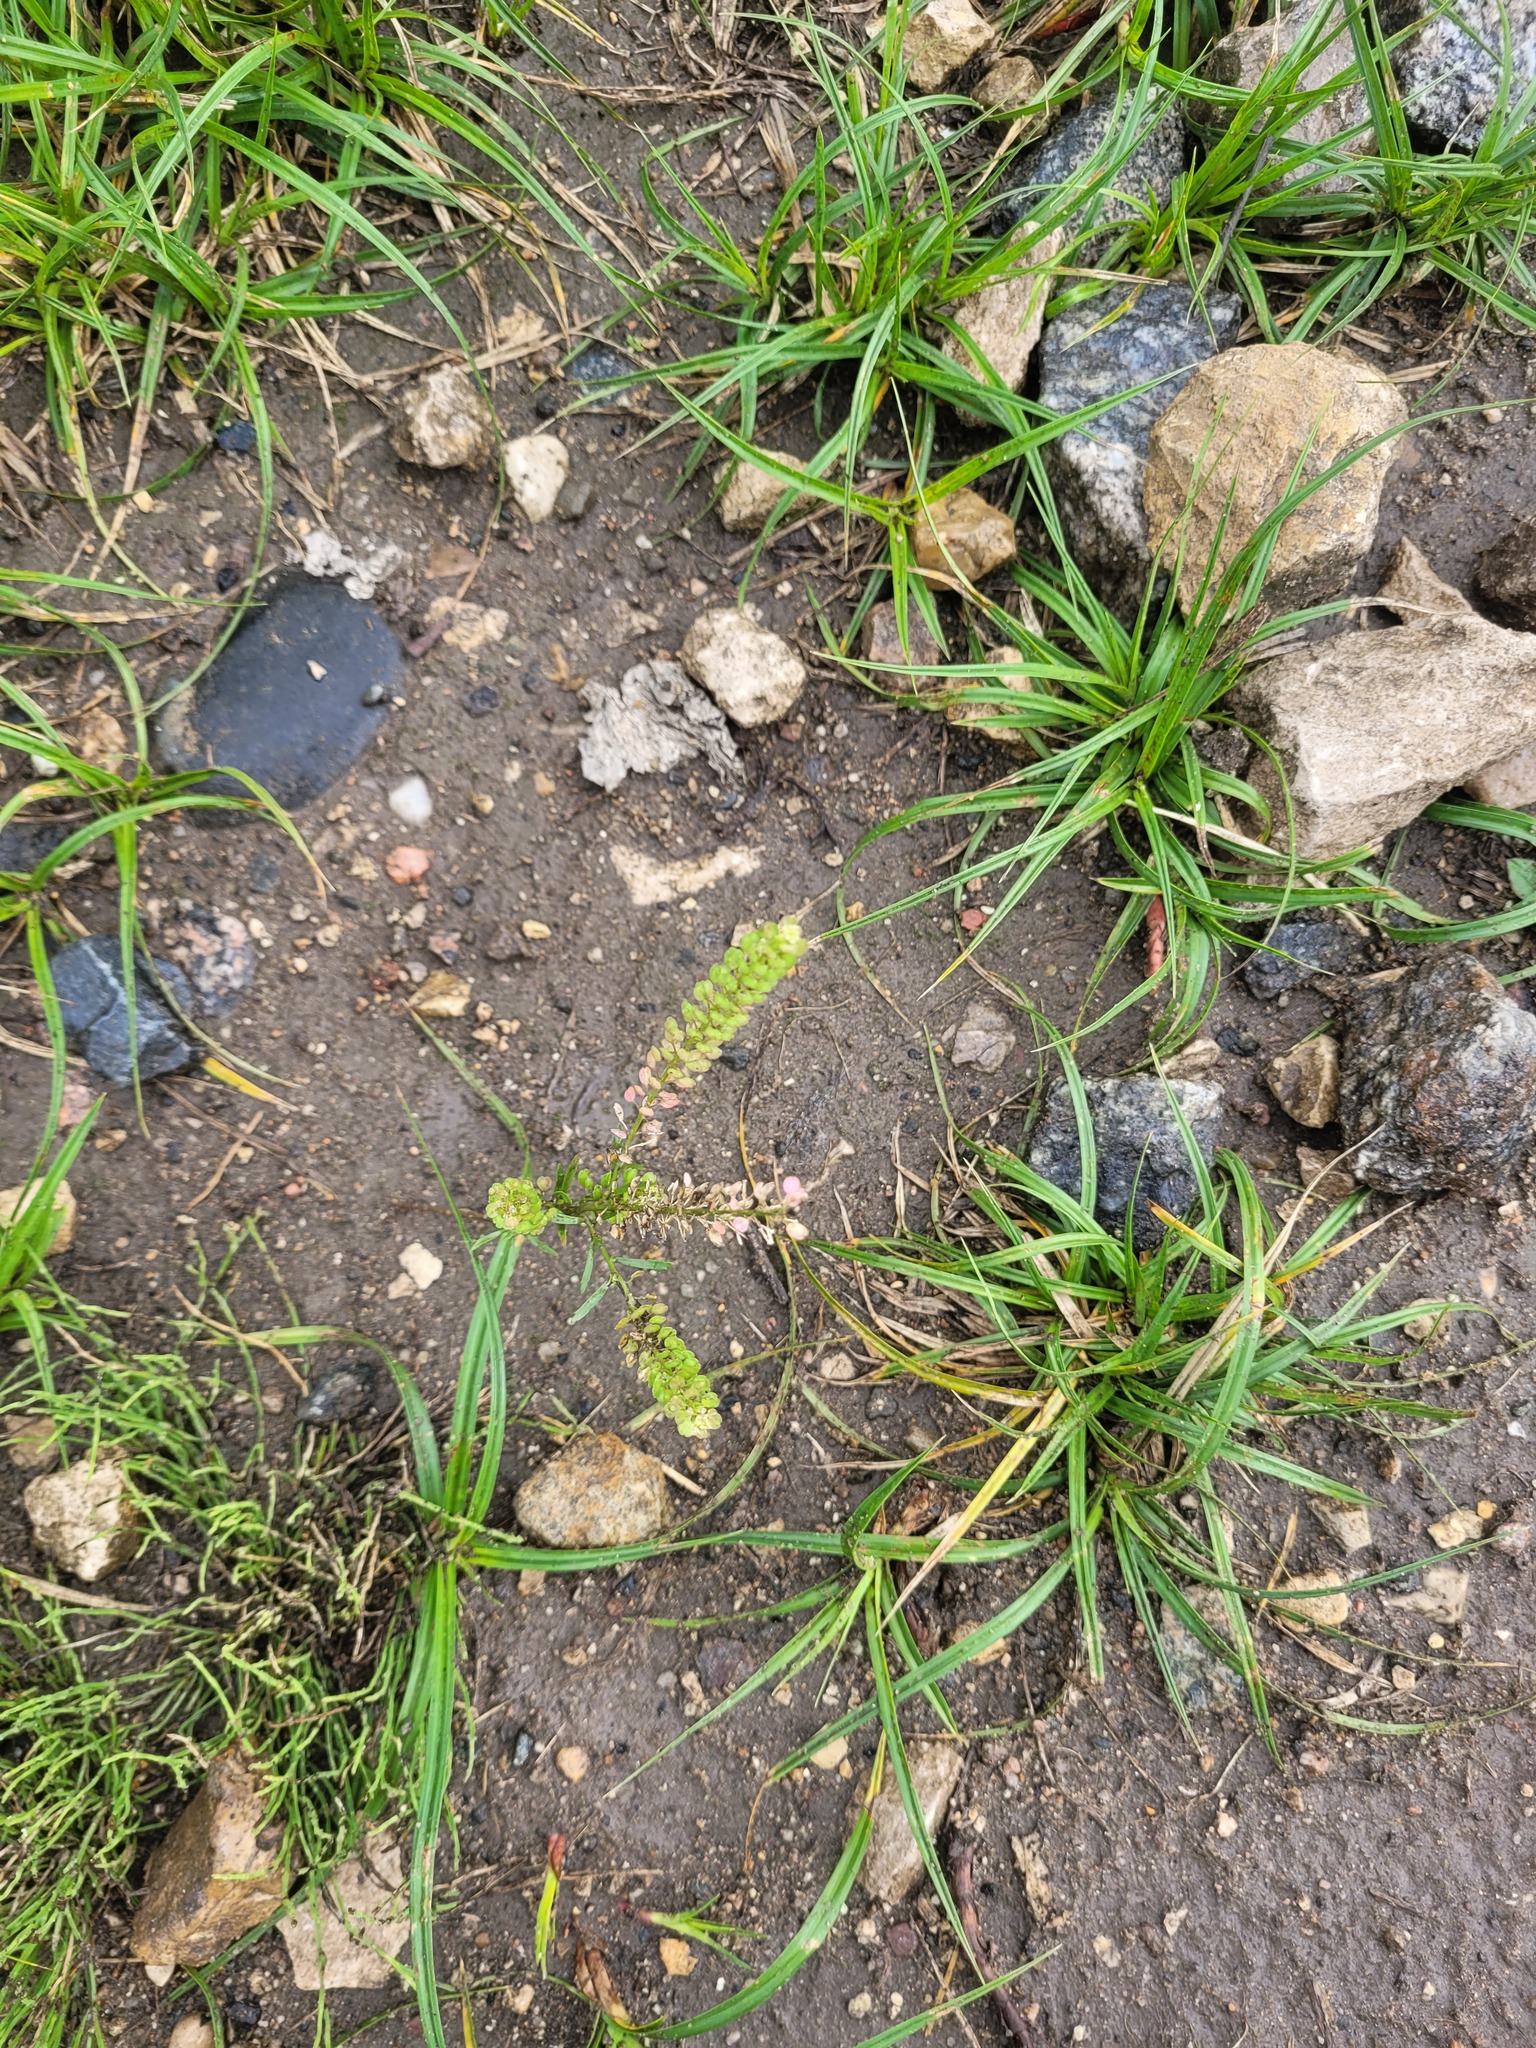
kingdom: Plantae
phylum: Tracheophyta
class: Magnoliopsida
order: Brassicales
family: Brassicaceae
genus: Lepidium
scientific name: Lepidium densiflorum
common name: Miner's pepperwort
